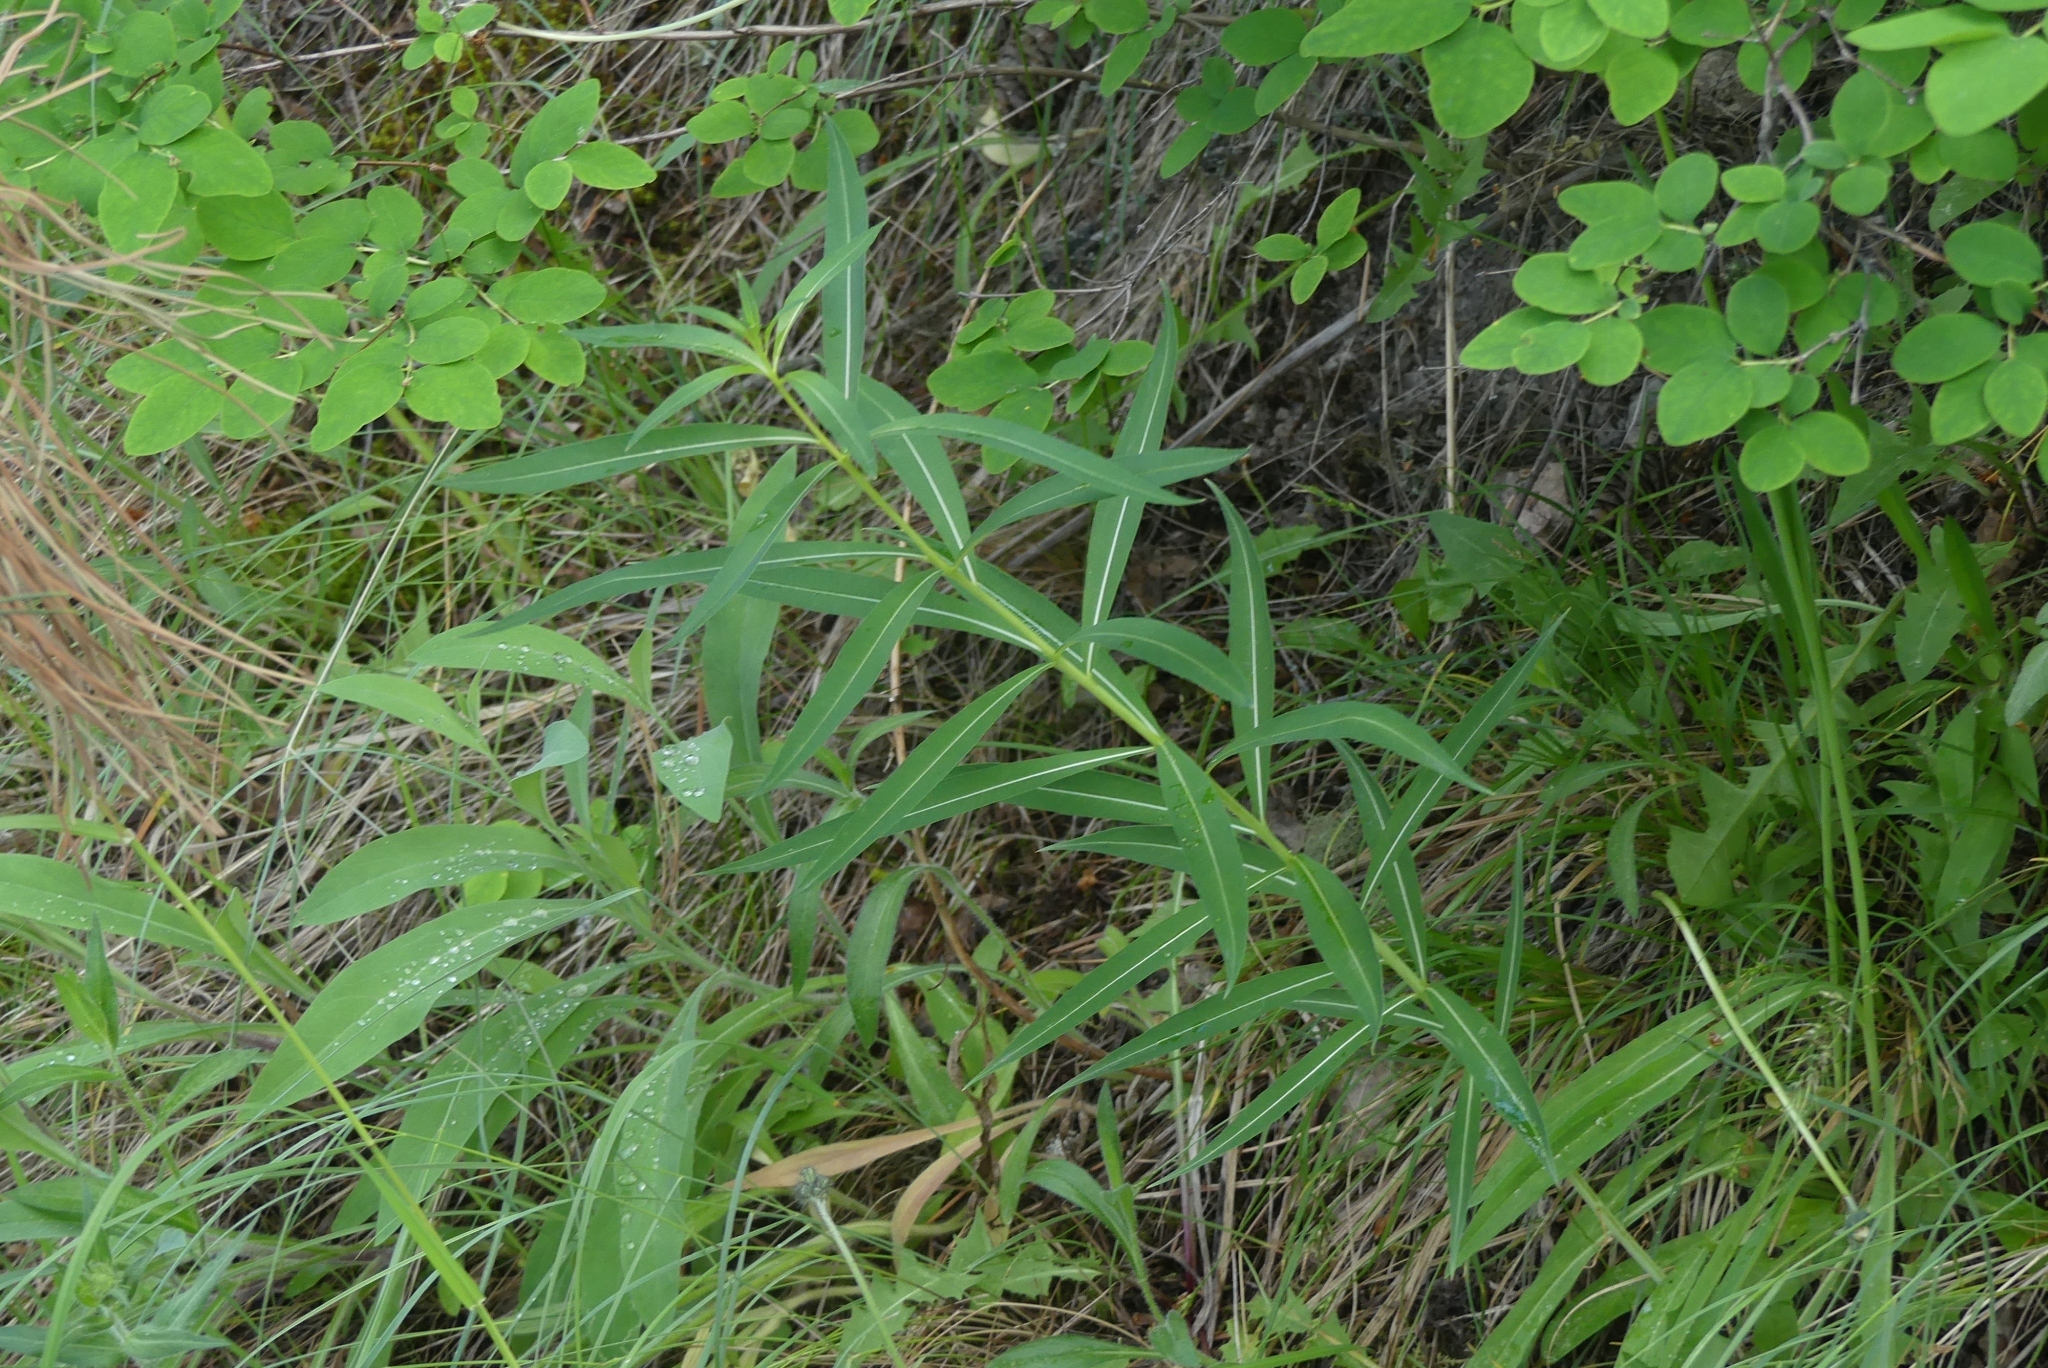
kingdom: Plantae
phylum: Tracheophyta
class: Magnoliopsida
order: Myrtales
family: Onagraceae
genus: Chamaenerion
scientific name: Chamaenerion angustifolium
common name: Fireweed
